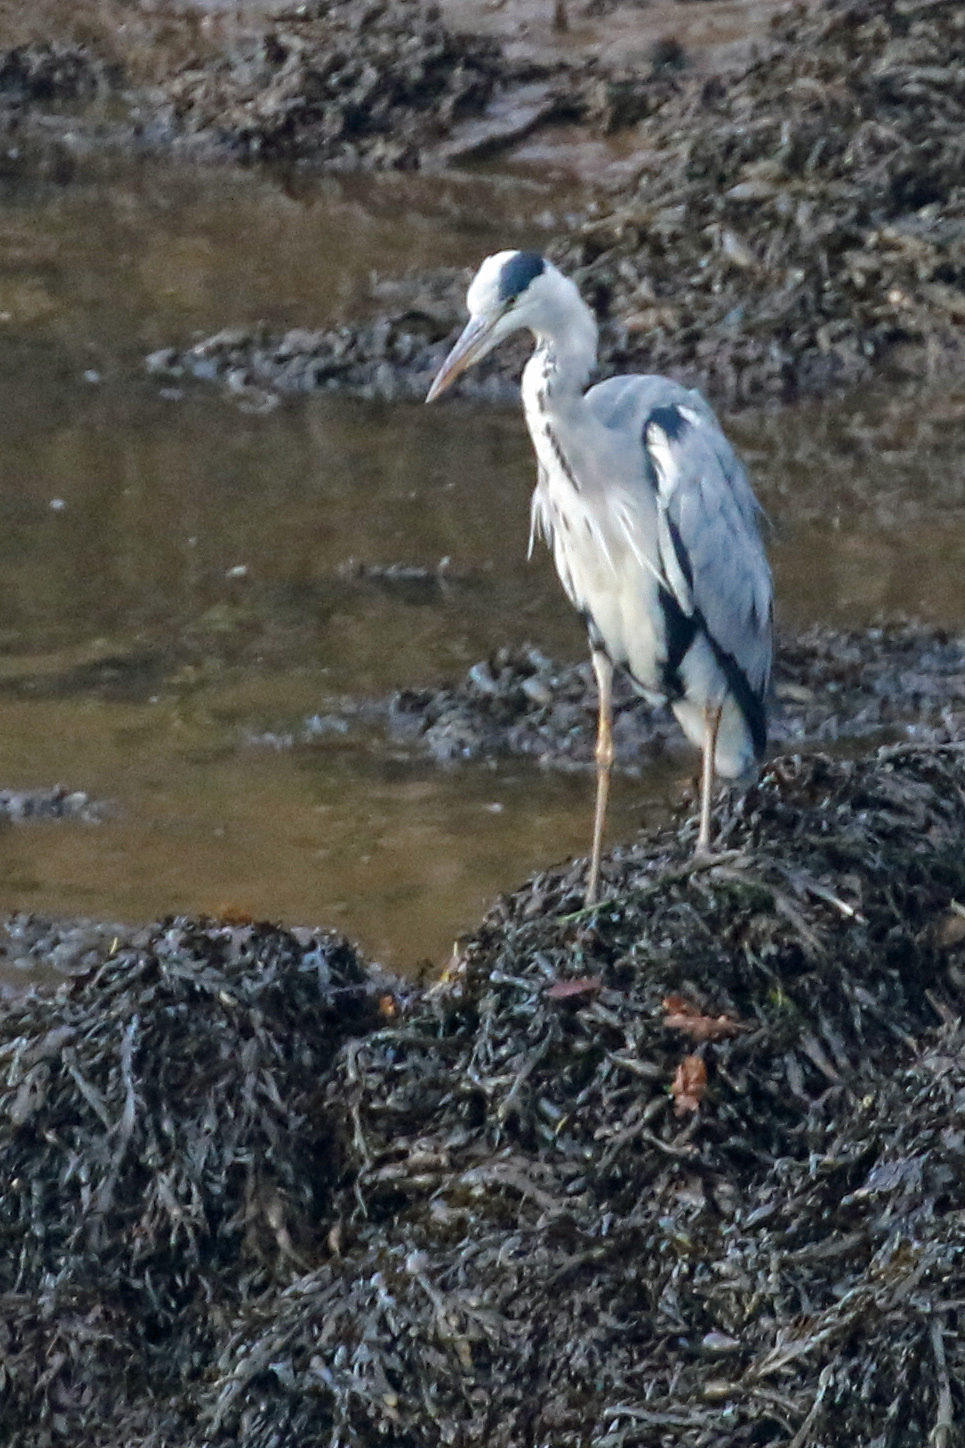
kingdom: Animalia
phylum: Chordata
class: Aves
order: Pelecaniformes
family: Ardeidae
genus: Ardea
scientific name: Ardea cinerea
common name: Grey heron
